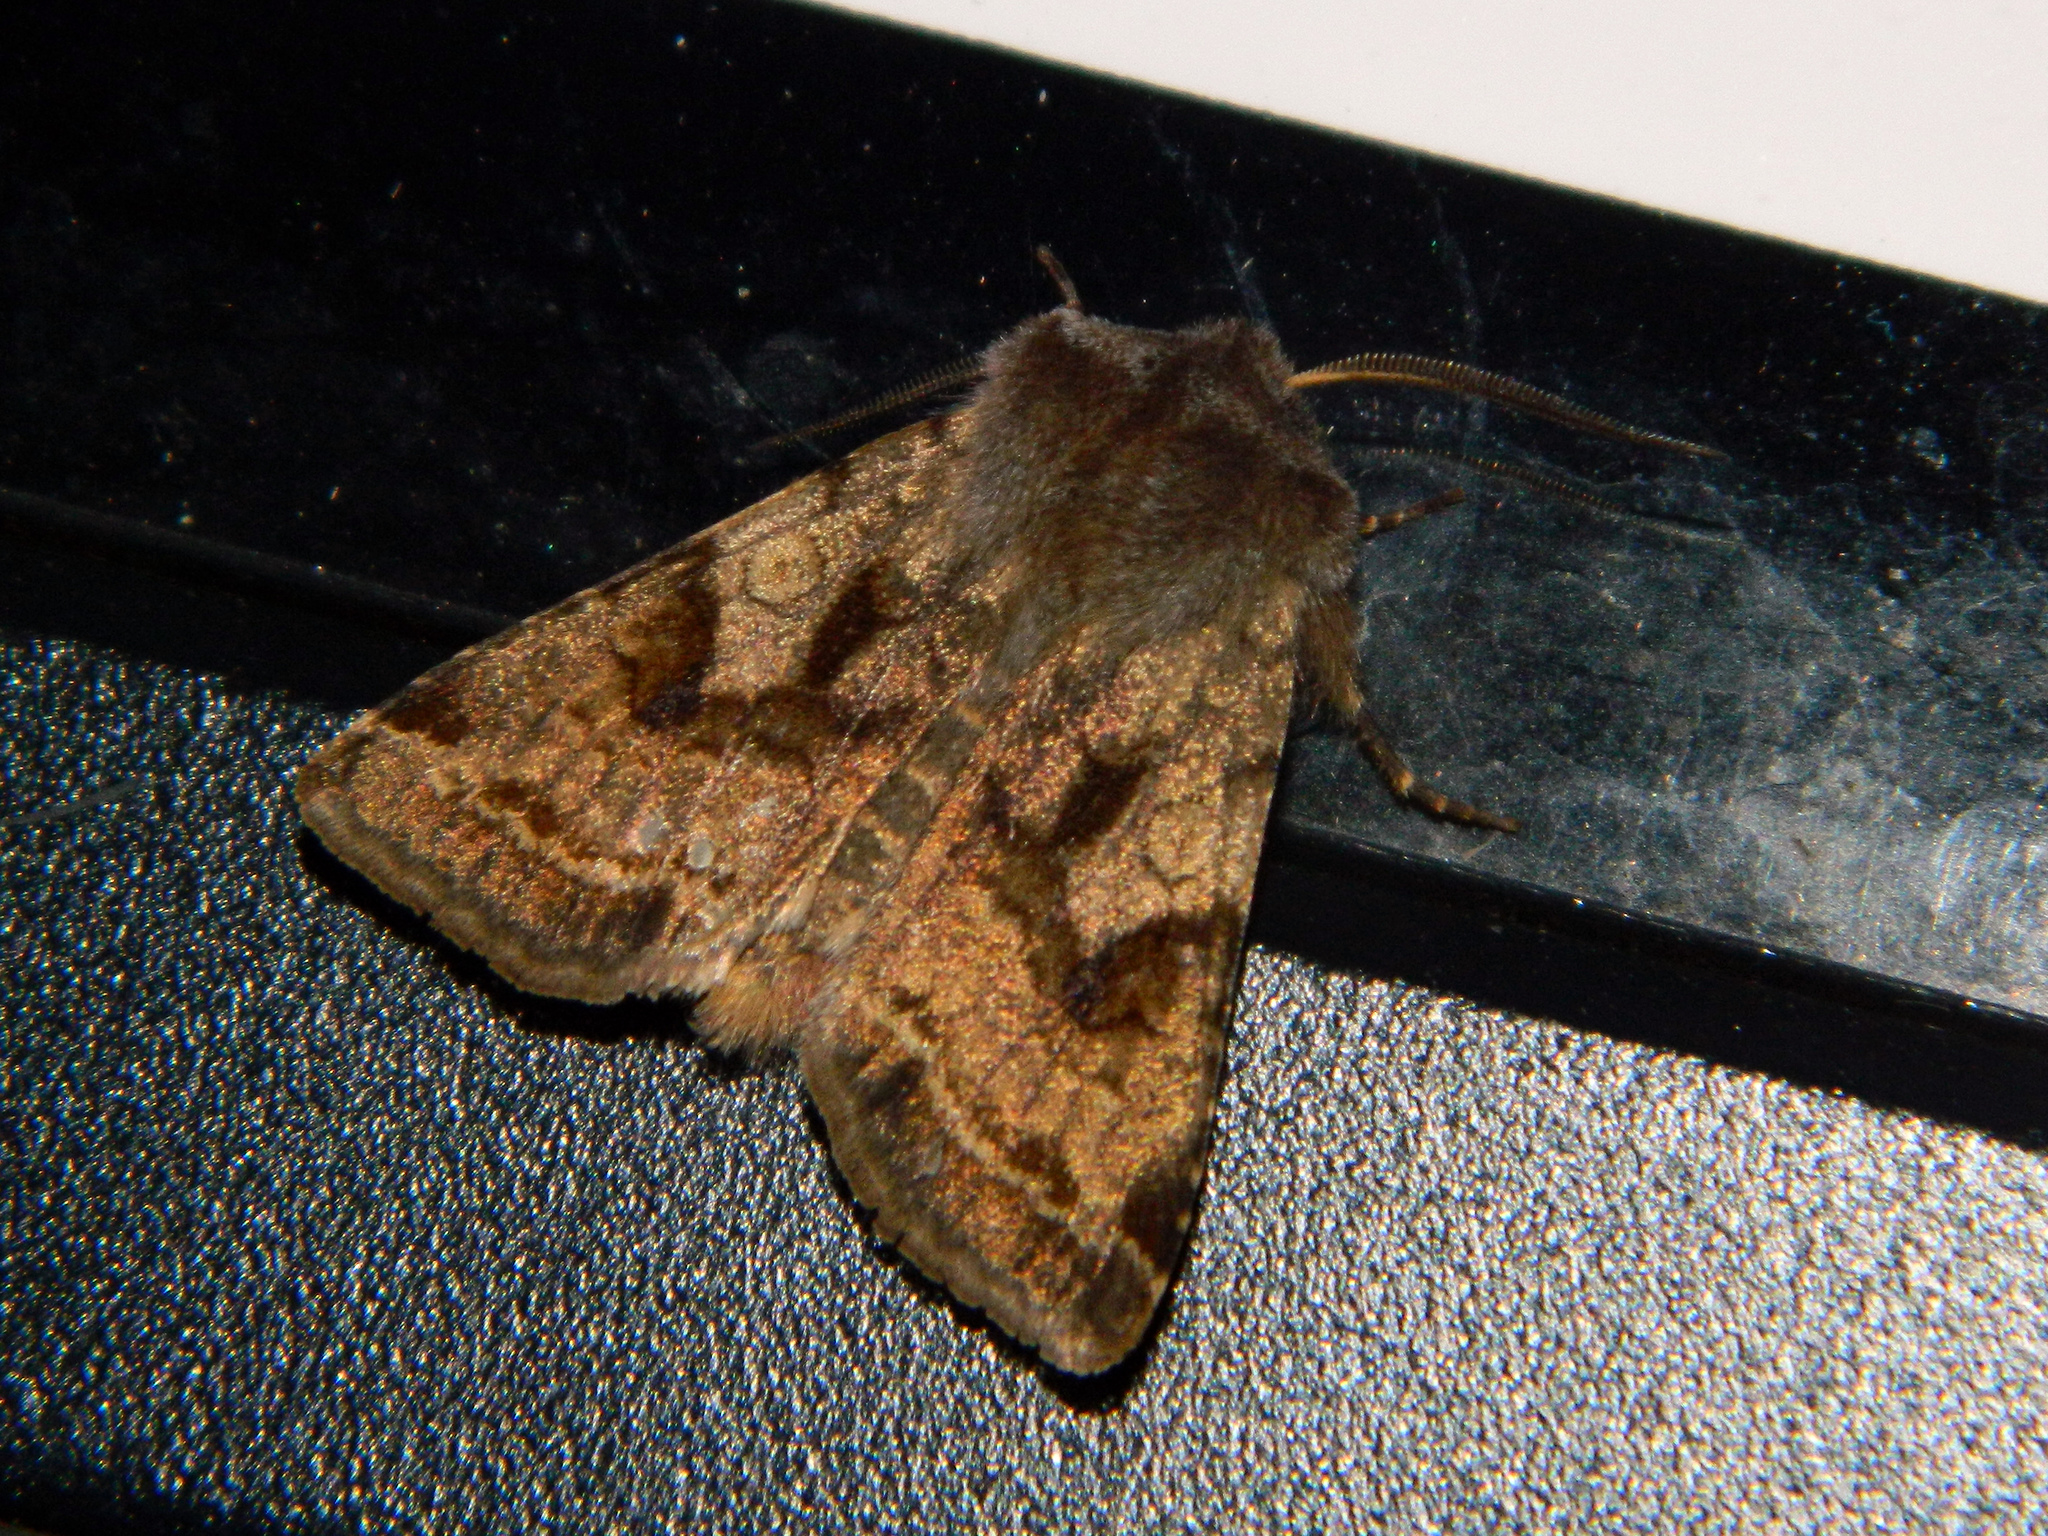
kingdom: Animalia
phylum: Arthropoda
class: Insecta
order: Lepidoptera
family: Noctuidae
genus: Cerastis
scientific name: Cerastis salicarum
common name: Willow dart
